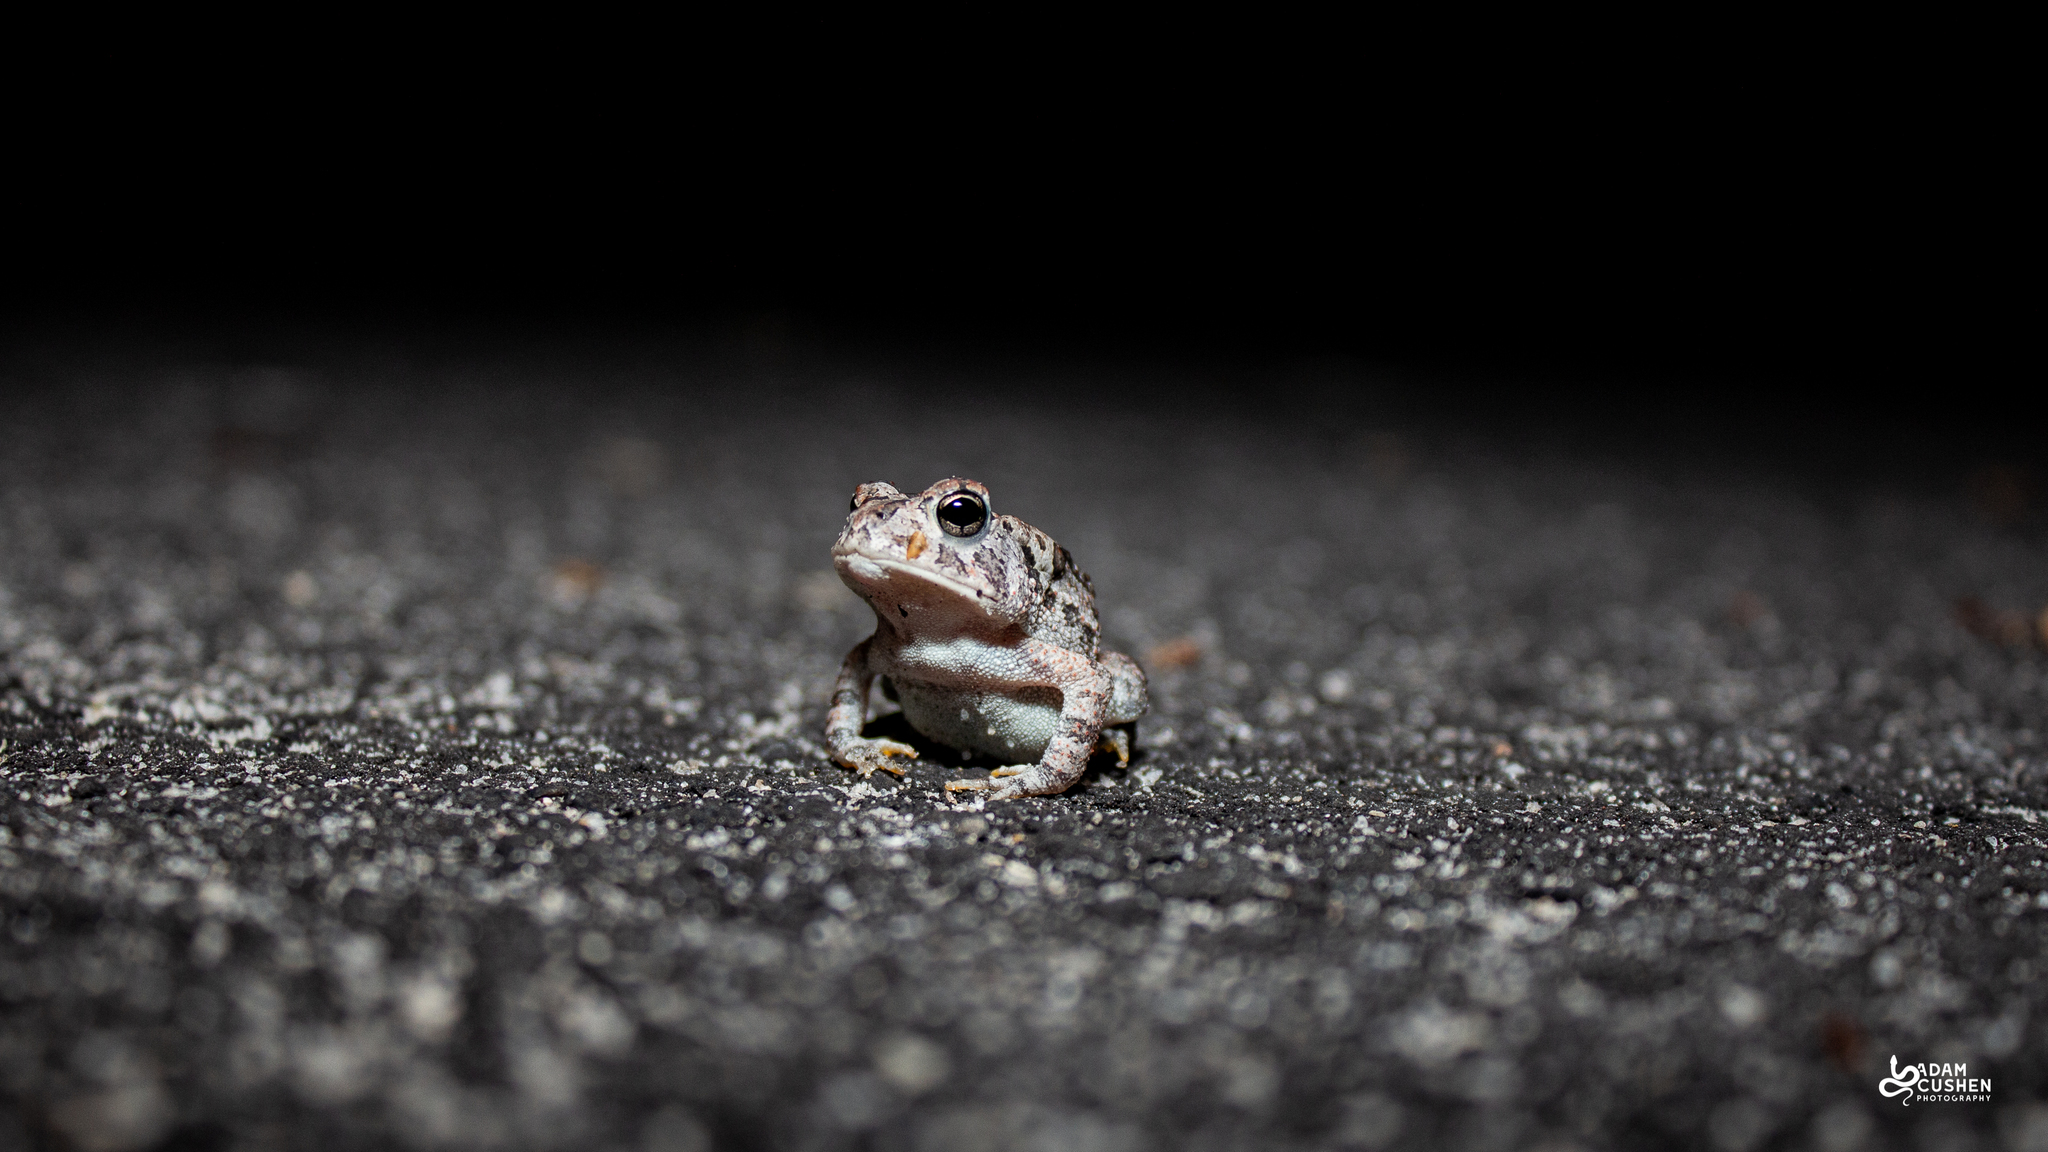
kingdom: Animalia
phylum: Chordata
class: Amphibia
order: Anura
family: Bufonidae
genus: Anaxyrus
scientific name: Anaxyrus terrestris
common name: Southern toad
